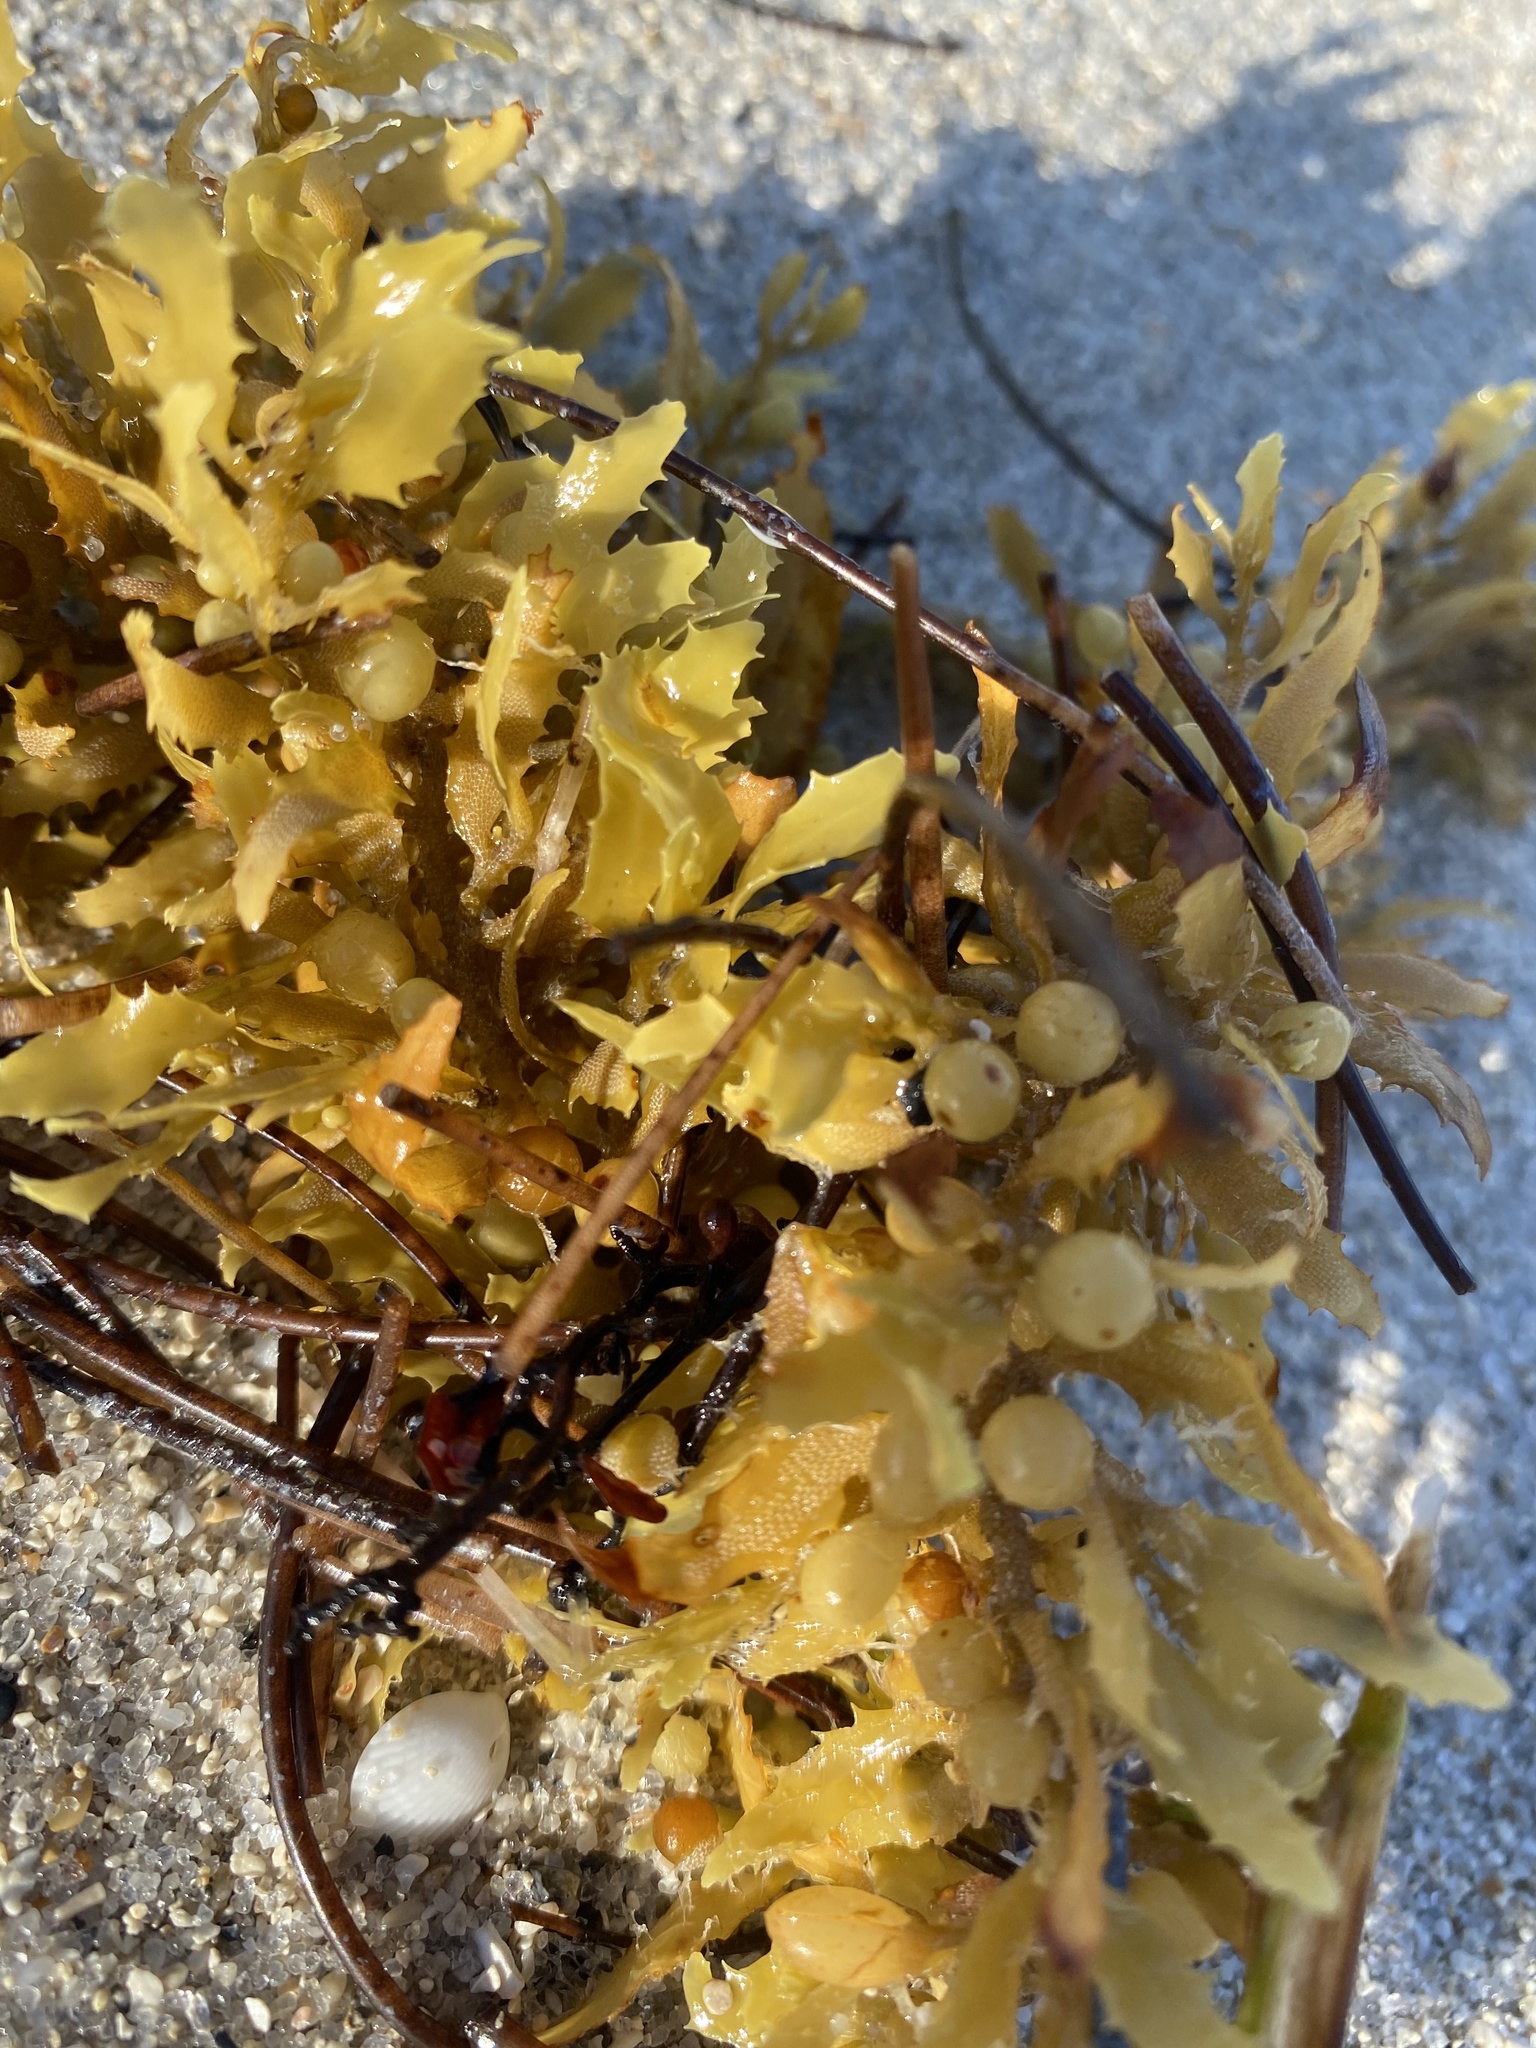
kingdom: Chromista
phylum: Ochrophyta
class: Phaeophyceae
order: Fucales
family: Sargassaceae
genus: Sargassum
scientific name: Sargassum fluitans
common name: Sargassum seaweed
